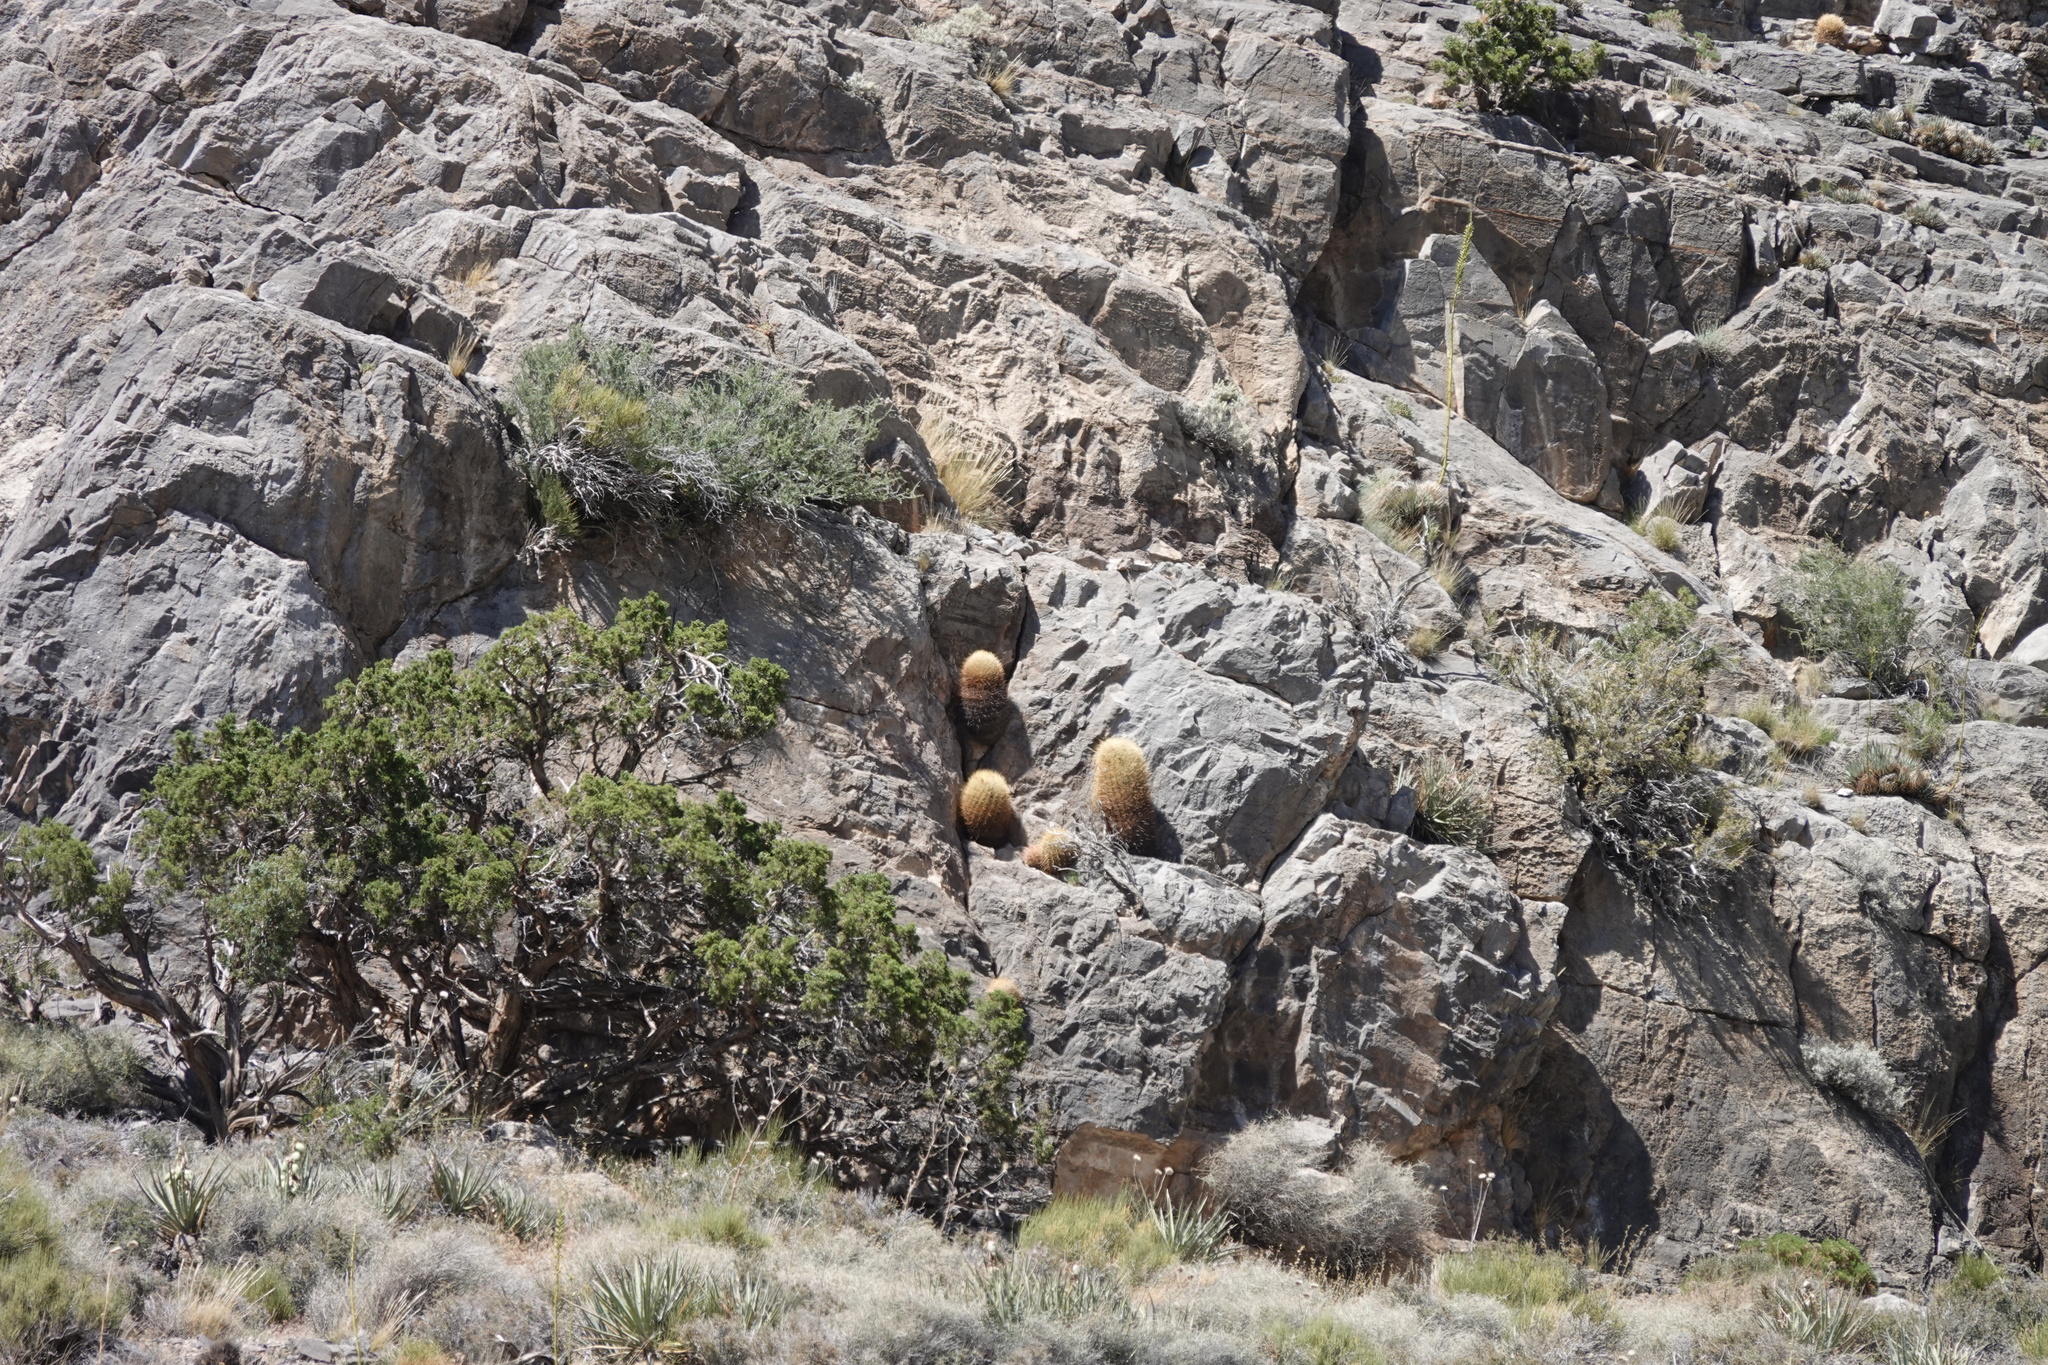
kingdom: Plantae
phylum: Tracheophyta
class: Magnoliopsida
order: Caryophyllales
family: Cactaceae
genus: Ferocactus
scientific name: Ferocactus cylindraceus
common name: California barrel cactus
